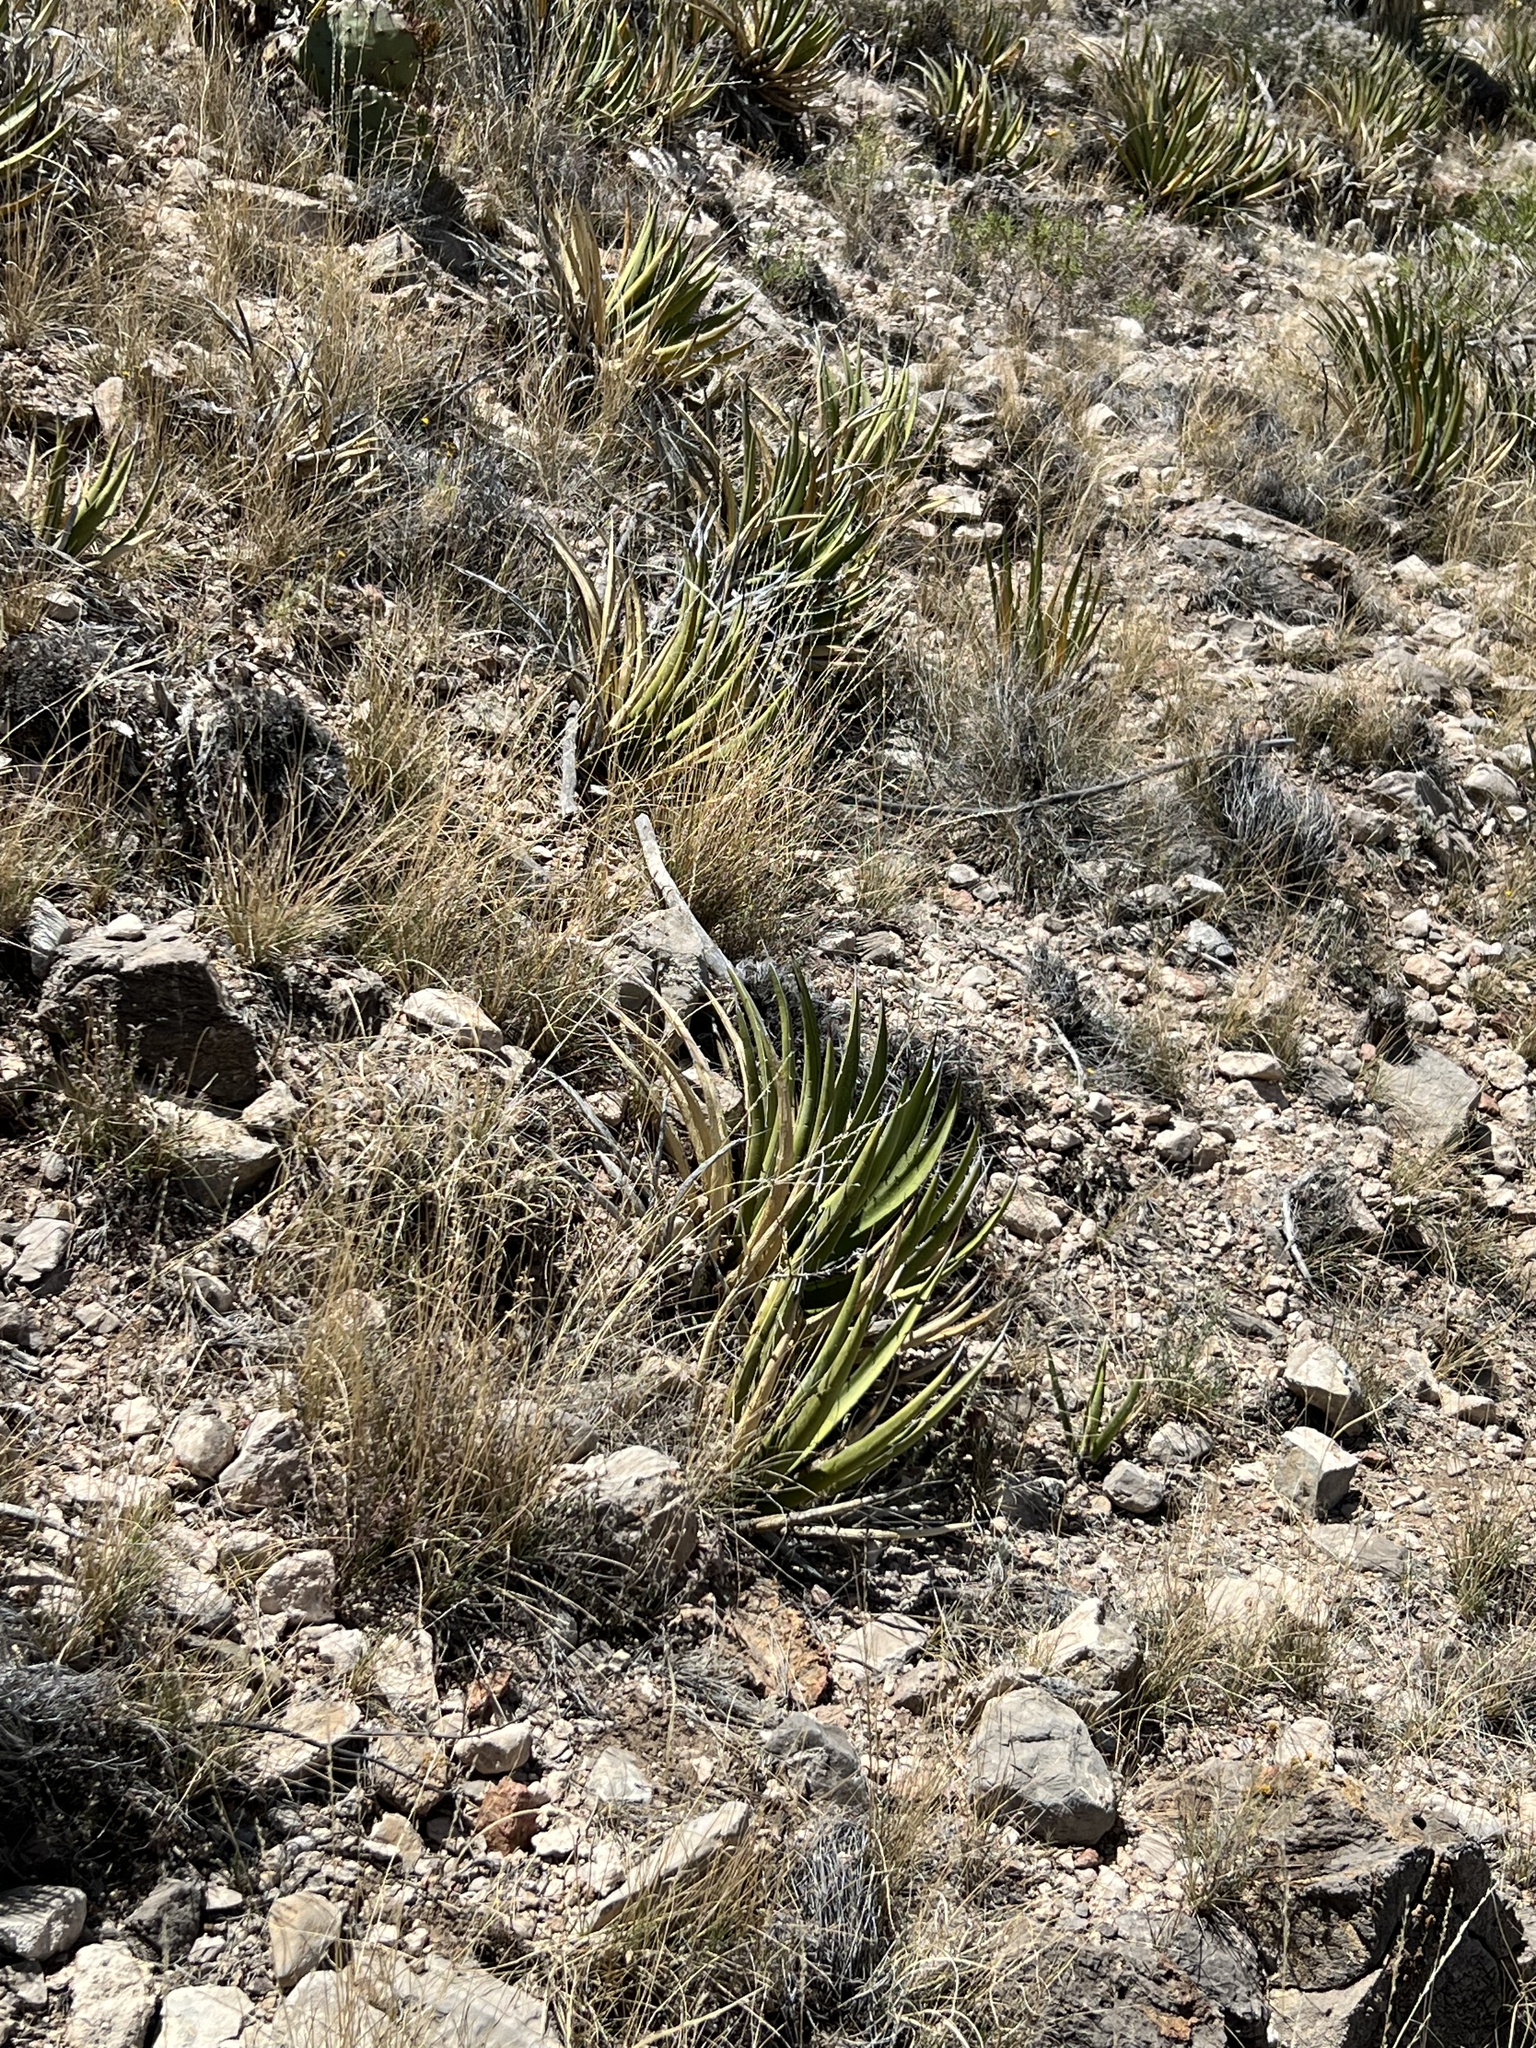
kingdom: Plantae
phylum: Tracheophyta
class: Liliopsida
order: Asparagales
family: Asparagaceae
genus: Agave
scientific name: Agave lechuguilla
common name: Lecheguilla agave
